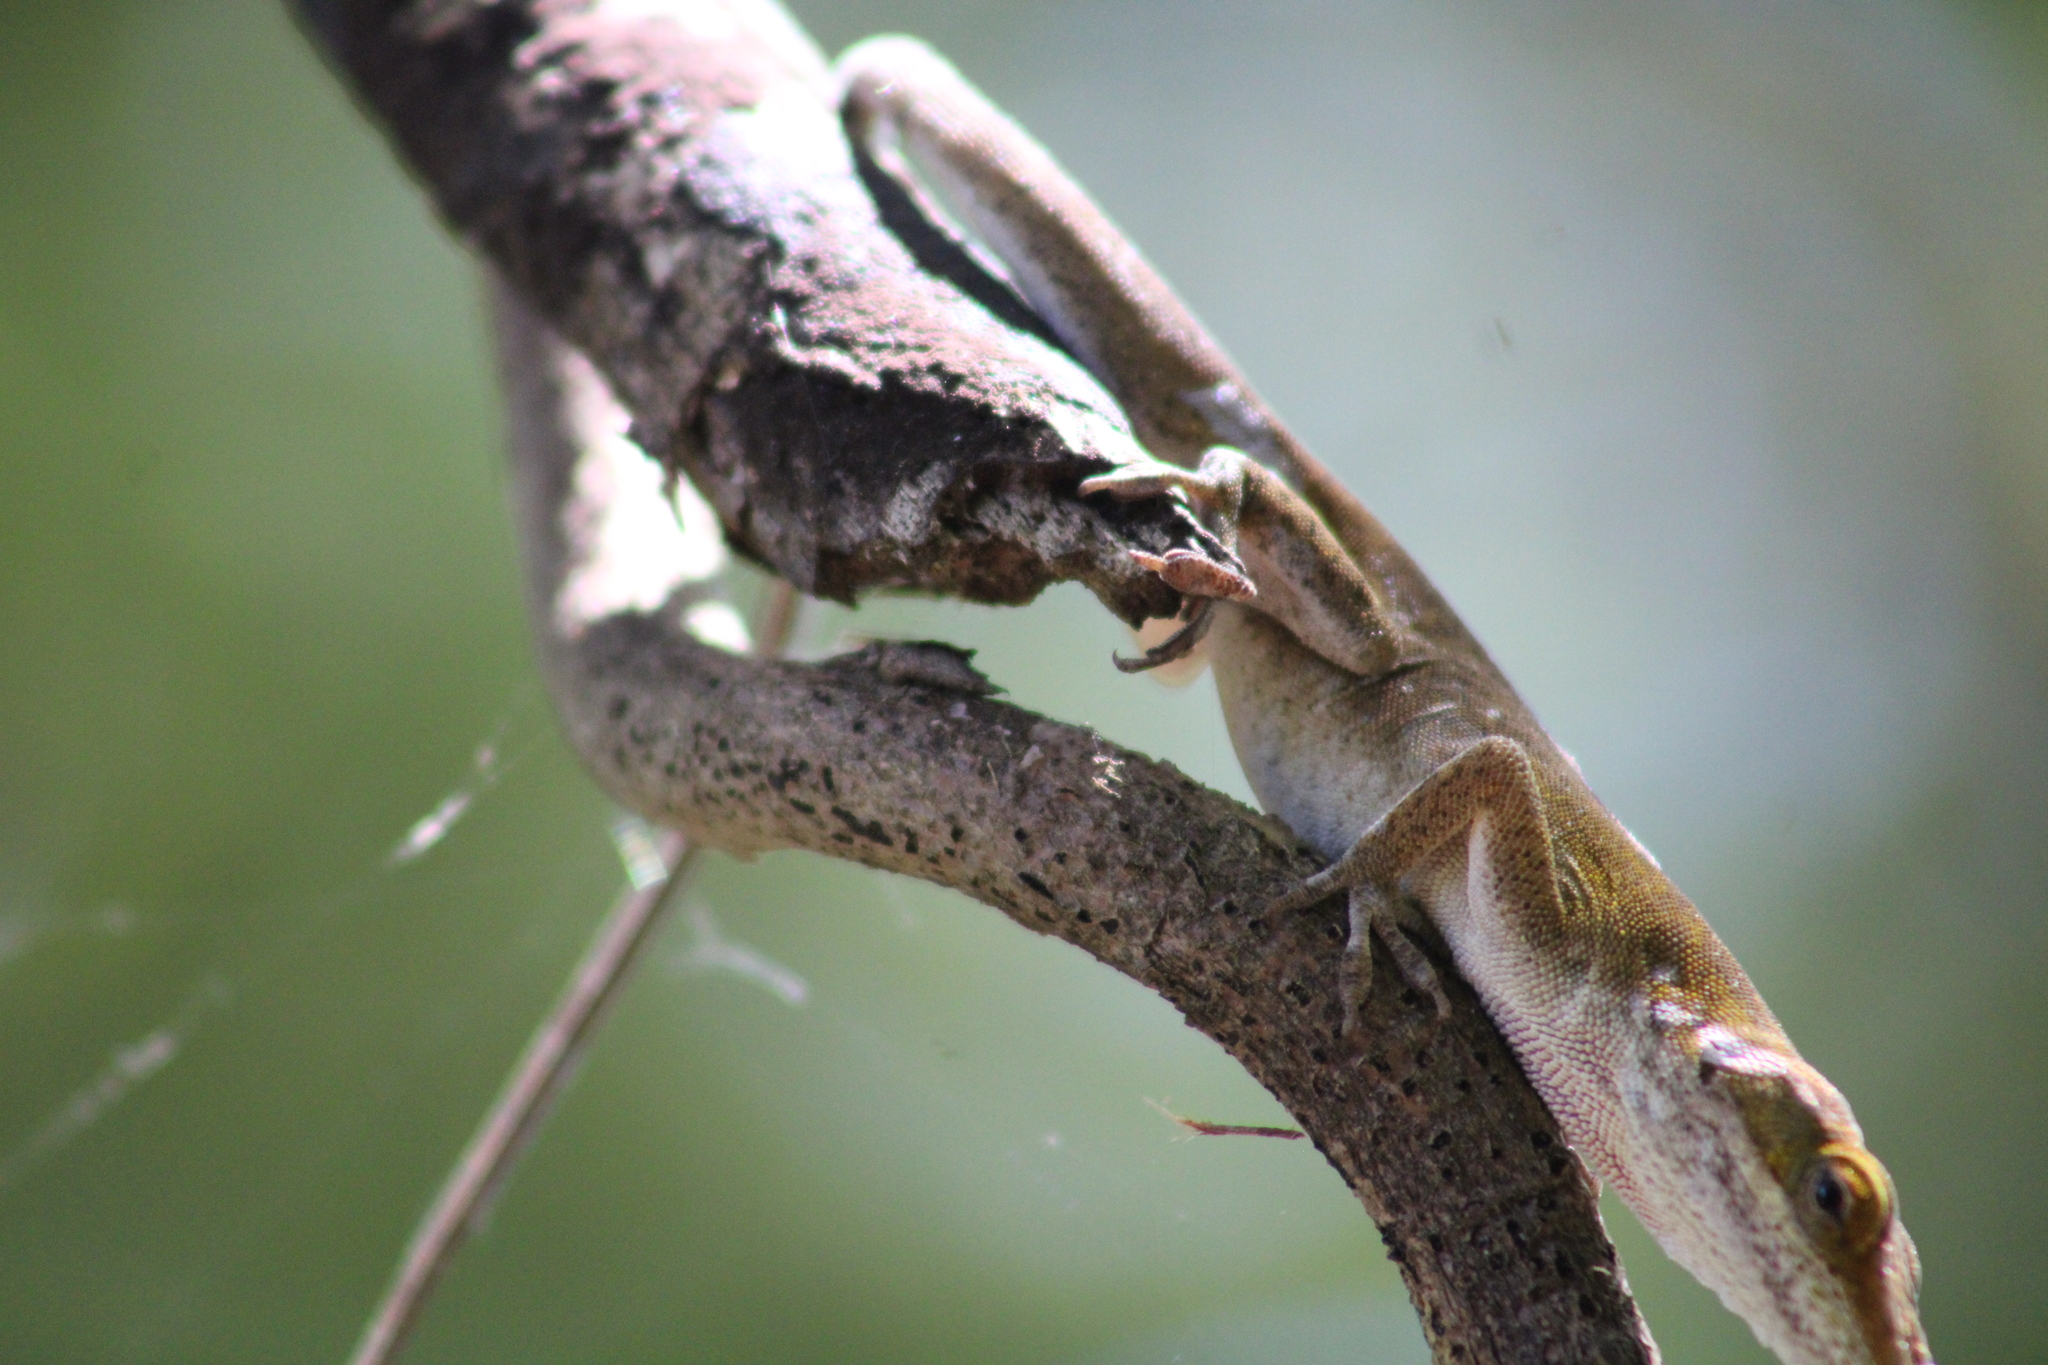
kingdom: Animalia
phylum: Chordata
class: Squamata
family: Dactyloidae
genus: Anolis
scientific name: Anolis carolinensis
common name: Green anole
